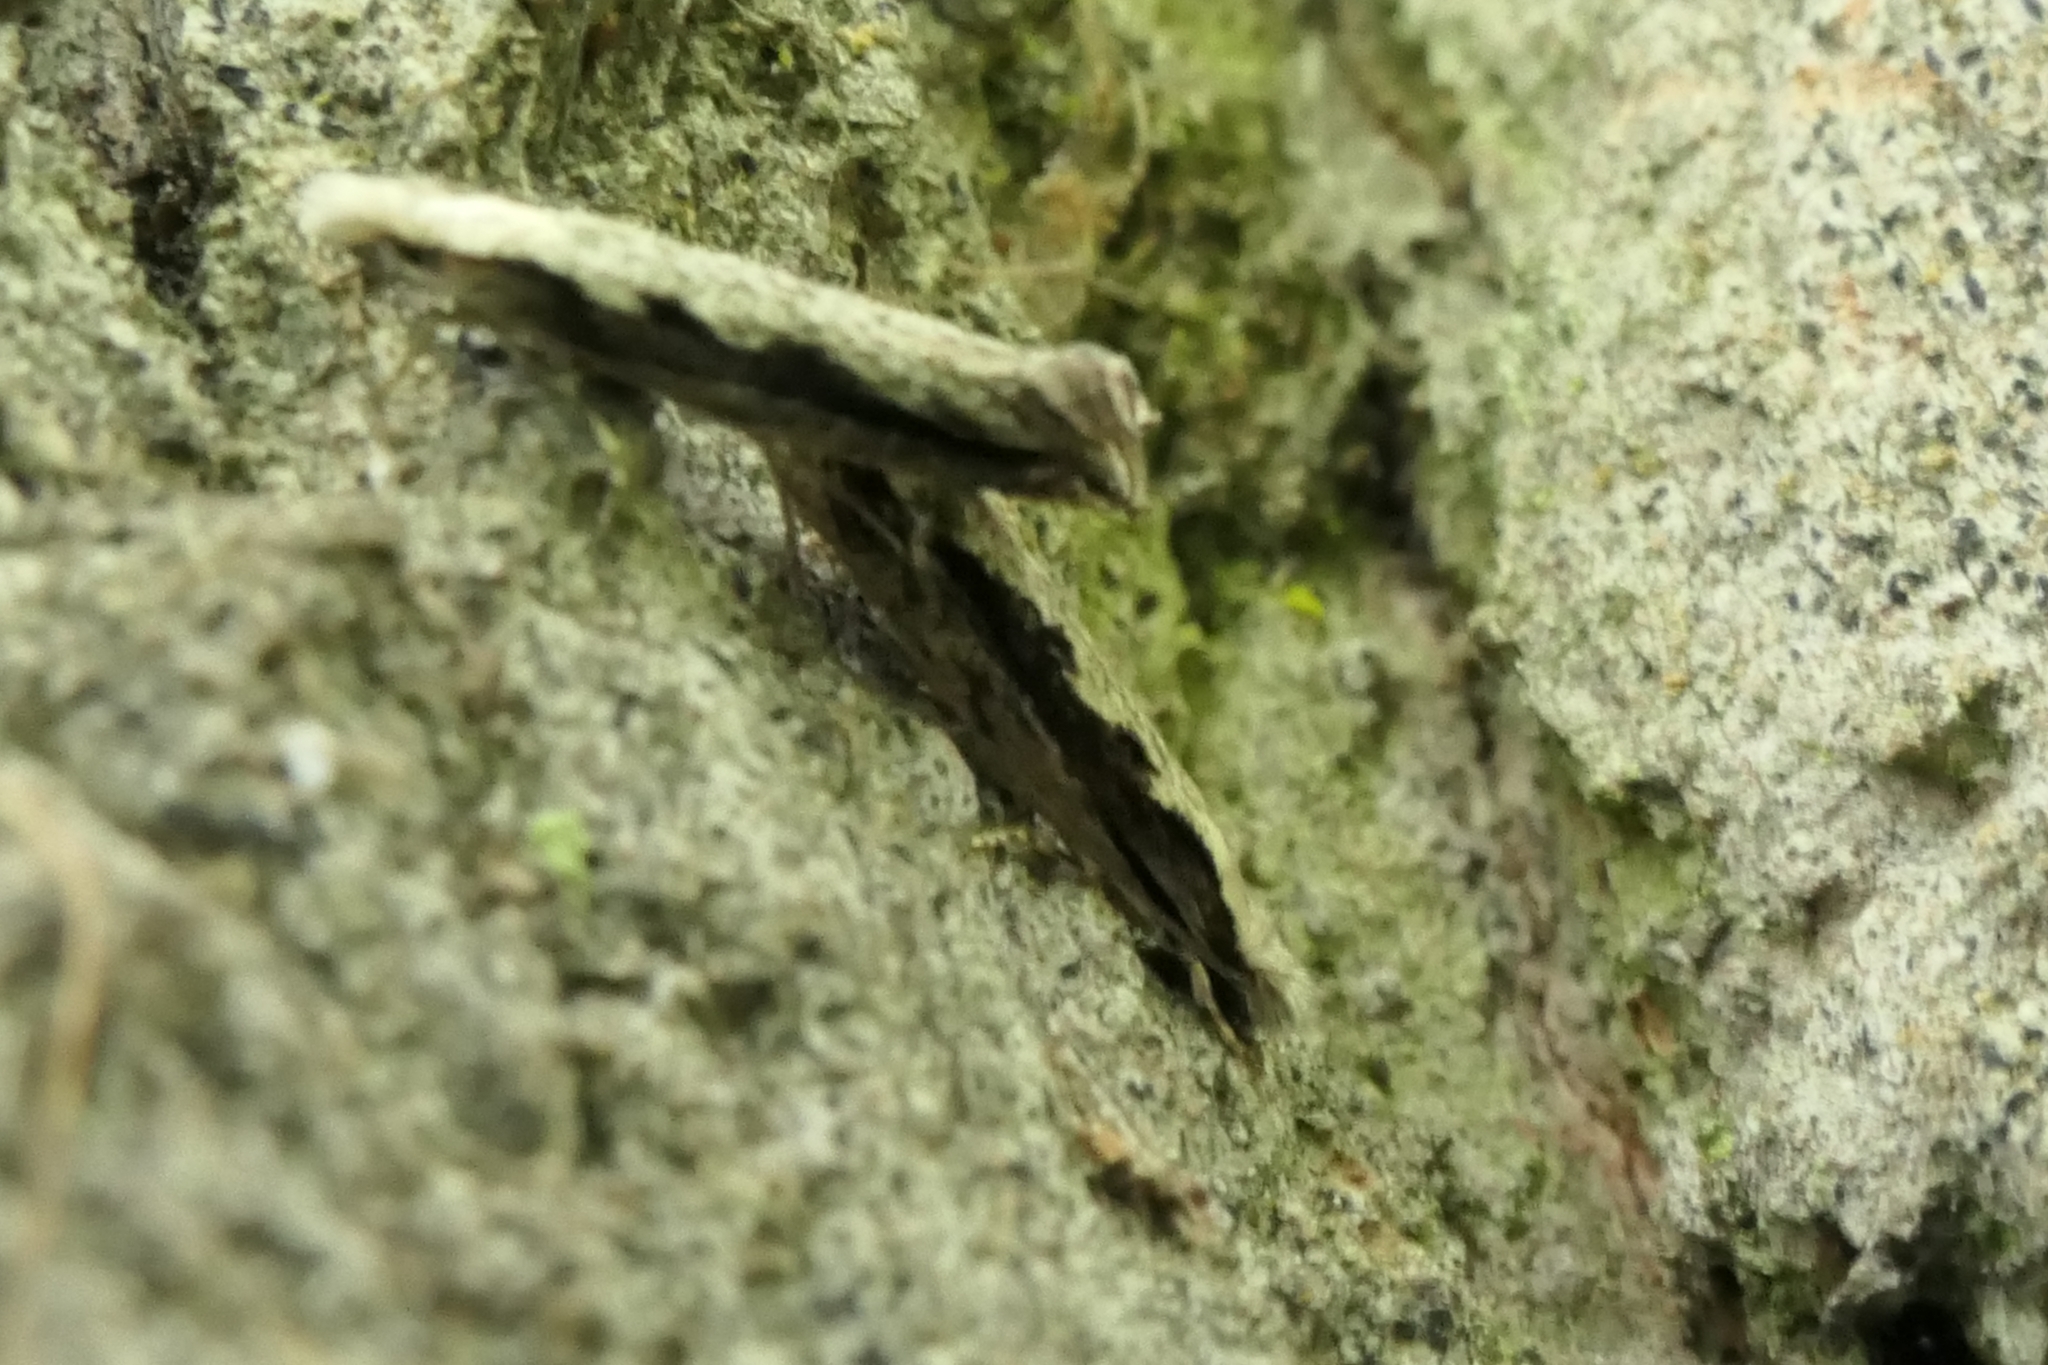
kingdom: Animalia
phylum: Arthropoda
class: Insecta
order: Lepidoptera
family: Tineidae
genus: Erechthias
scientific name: Erechthias fulguritella
